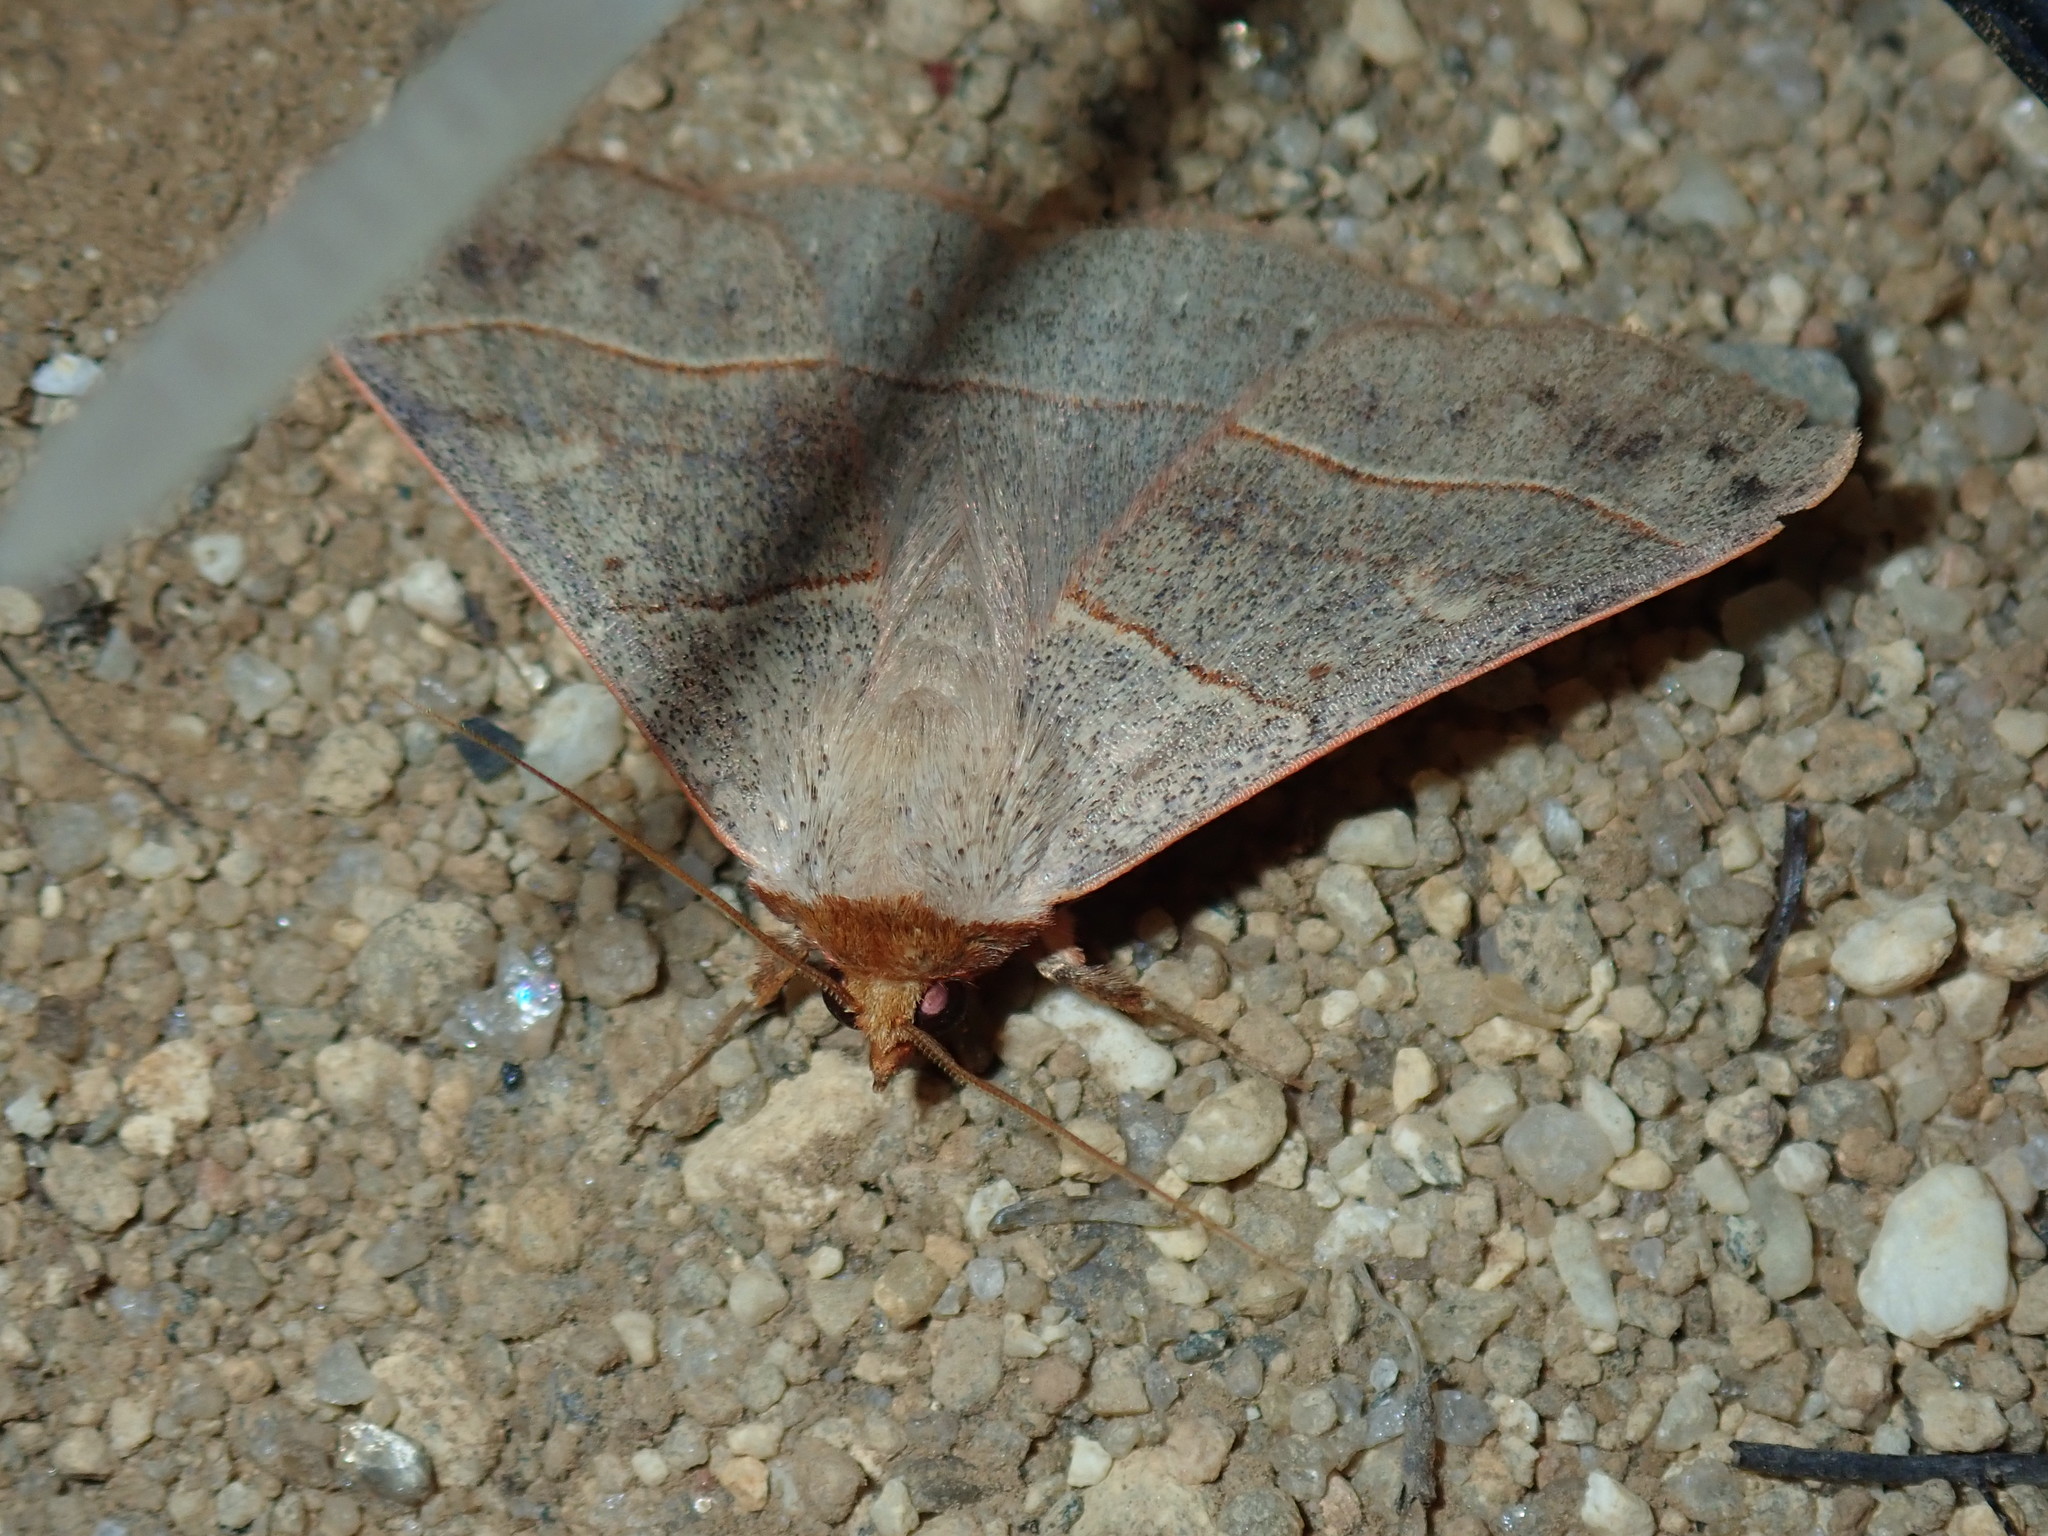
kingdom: Animalia
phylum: Arthropoda
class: Insecta
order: Lepidoptera
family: Erebidae
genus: Panopoda
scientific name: Panopoda rufimargo
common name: Red-lined panopoda moth
